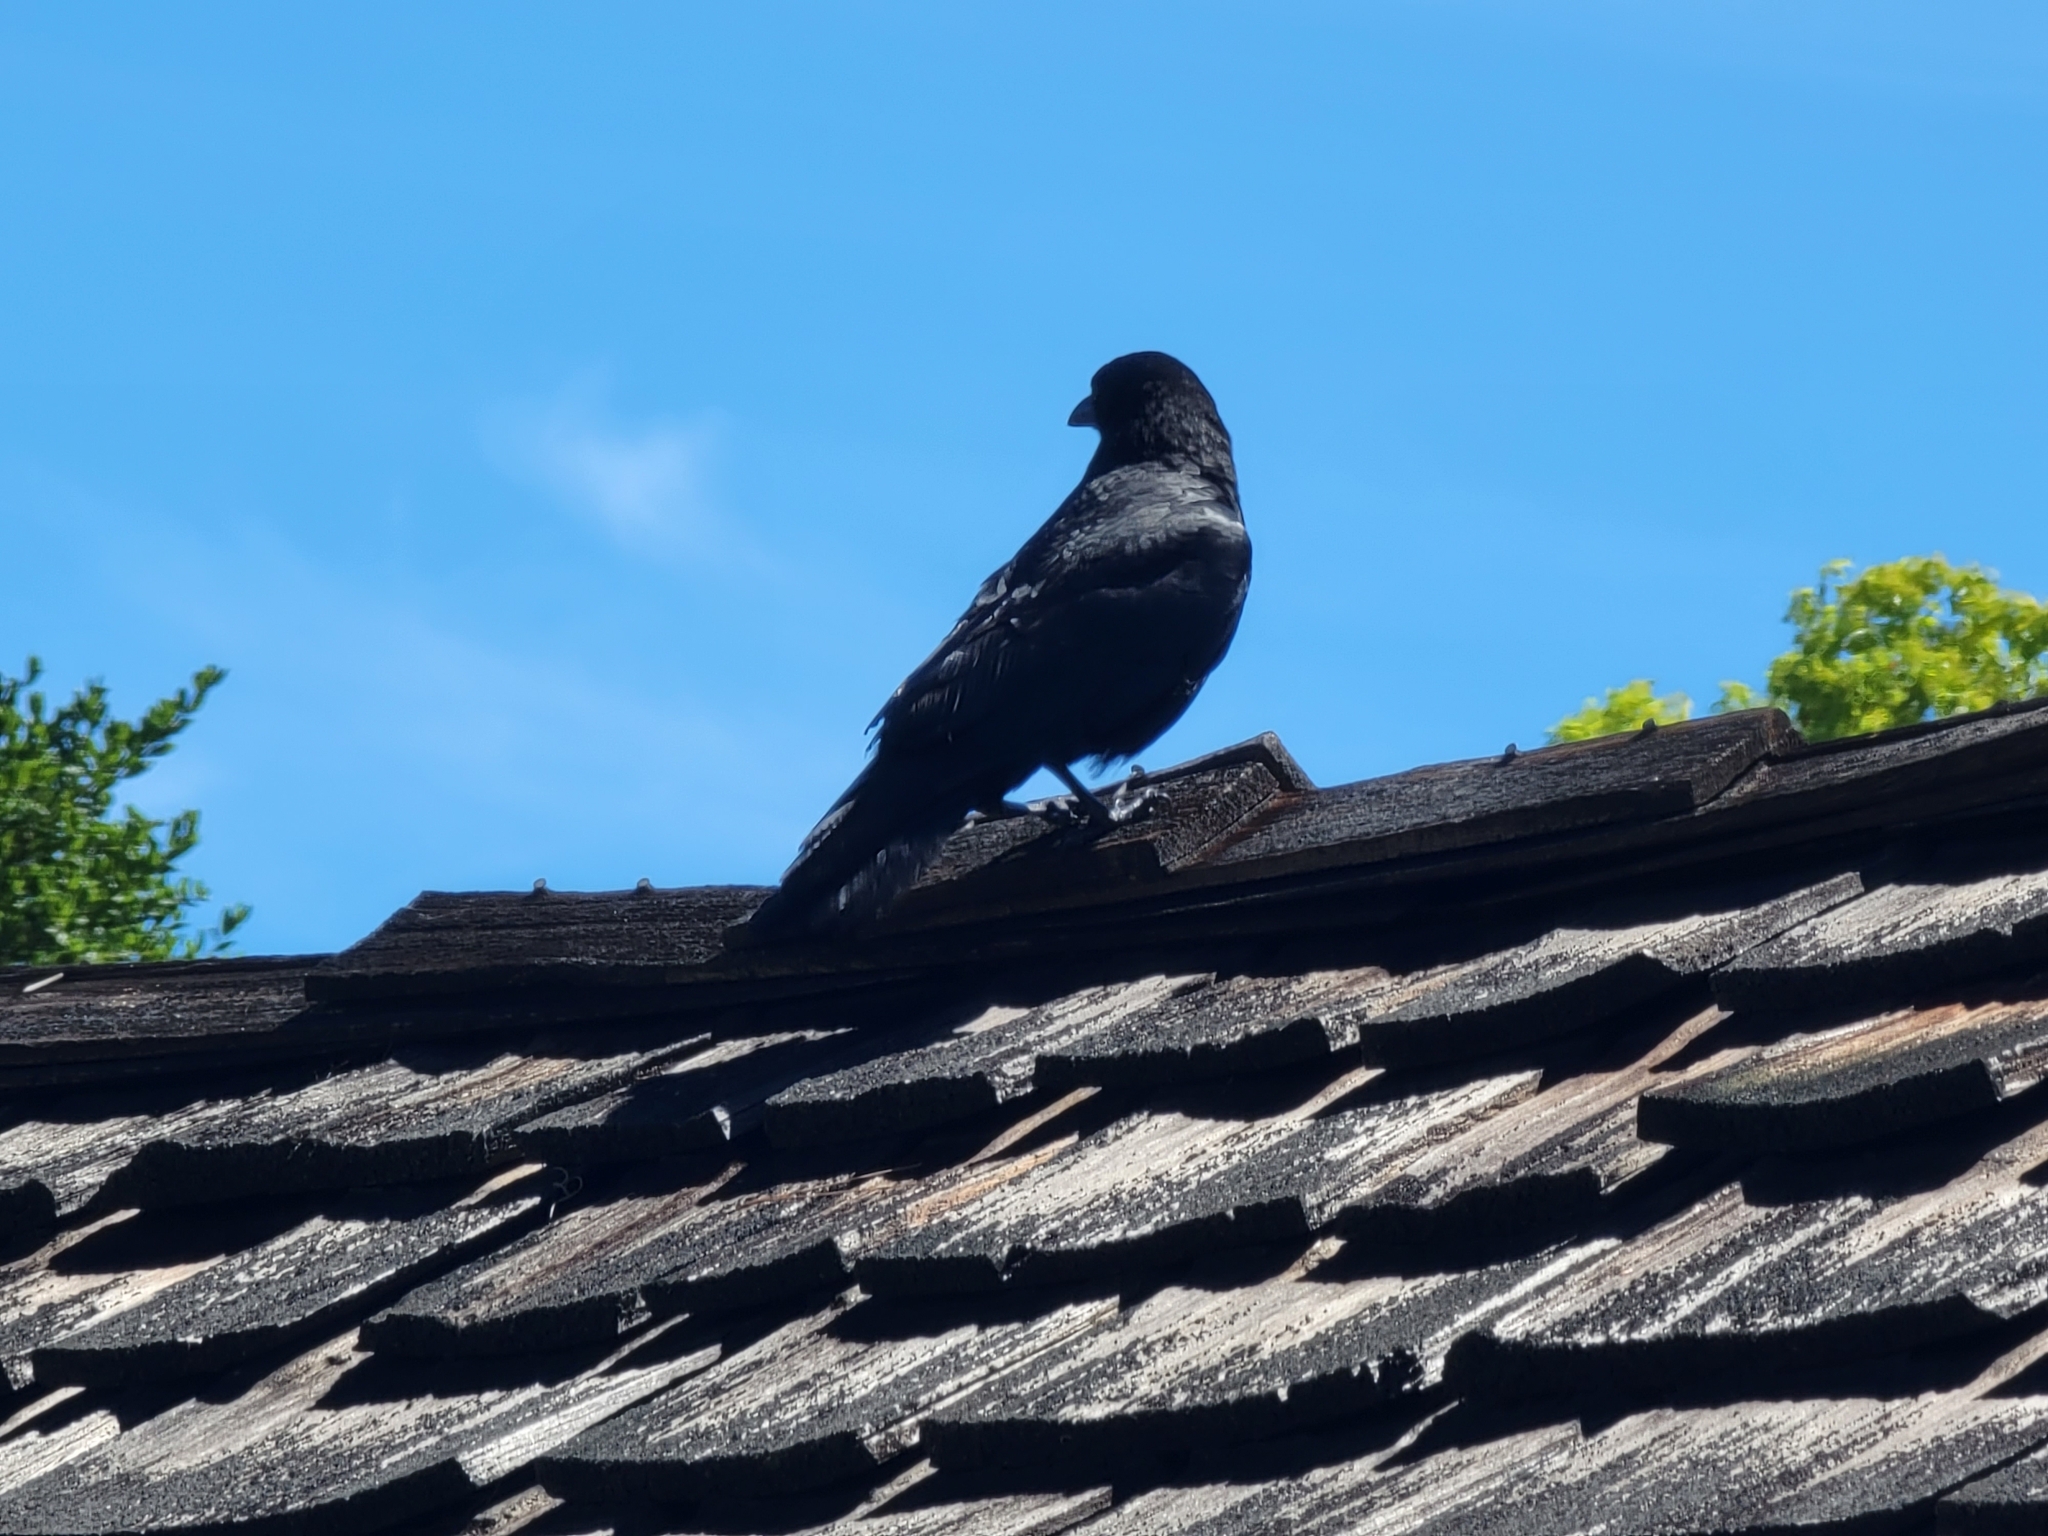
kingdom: Animalia
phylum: Chordata
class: Aves
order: Passeriformes
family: Corvidae
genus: Corvus
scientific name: Corvus brachyrhynchos
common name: American crow
